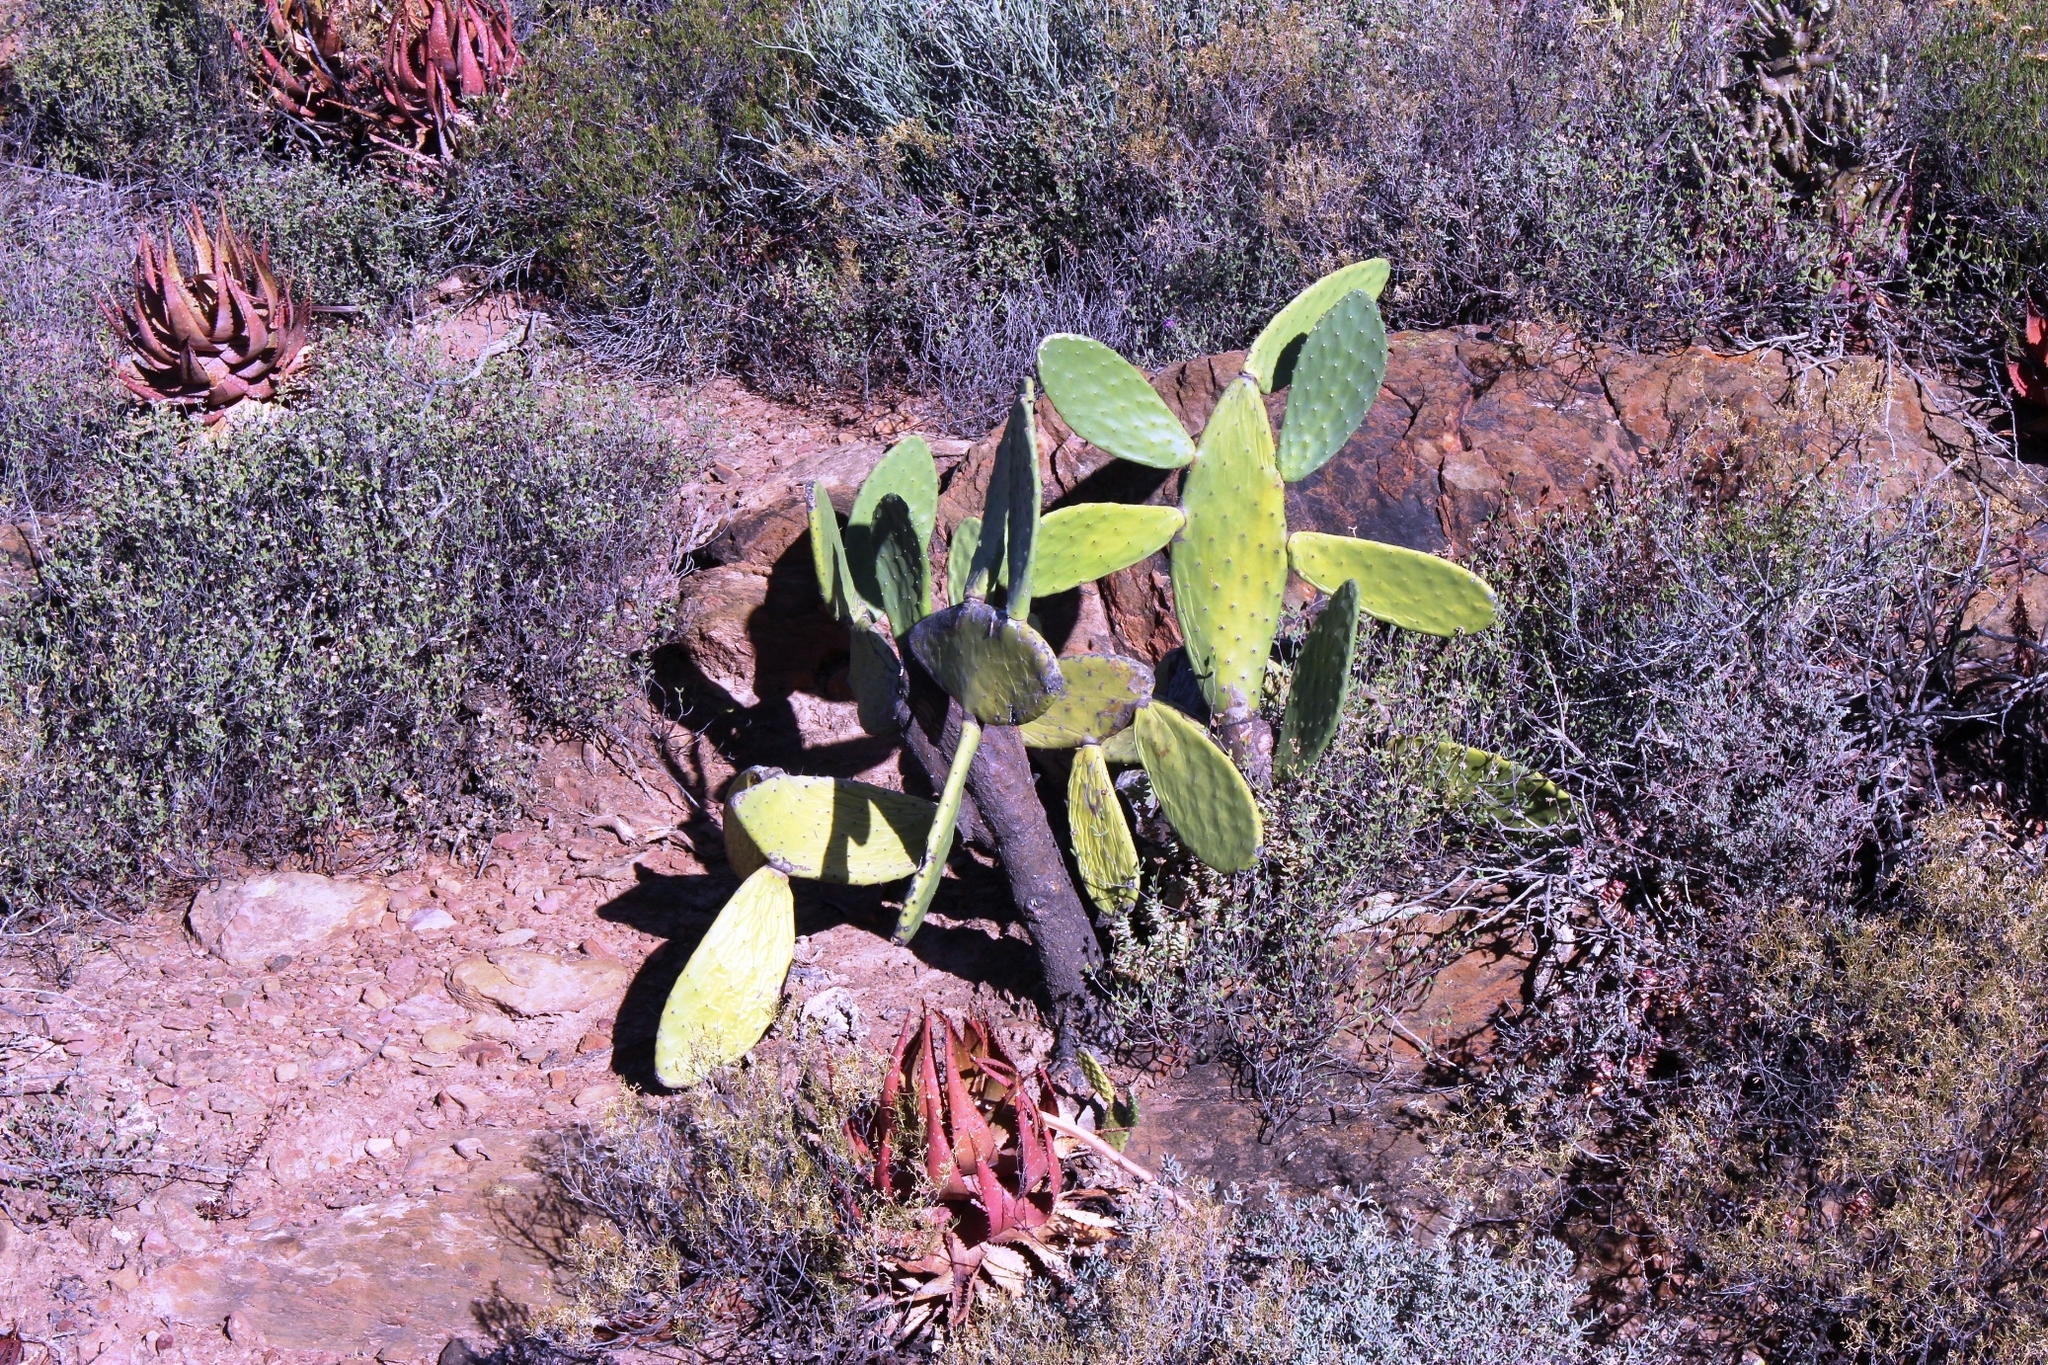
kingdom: Plantae
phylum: Tracheophyta
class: Magnoliopsida
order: Caryophyllales
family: Cactaceae
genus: Opuntia
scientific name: Opuntia ficus-indica
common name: Barbary fig
